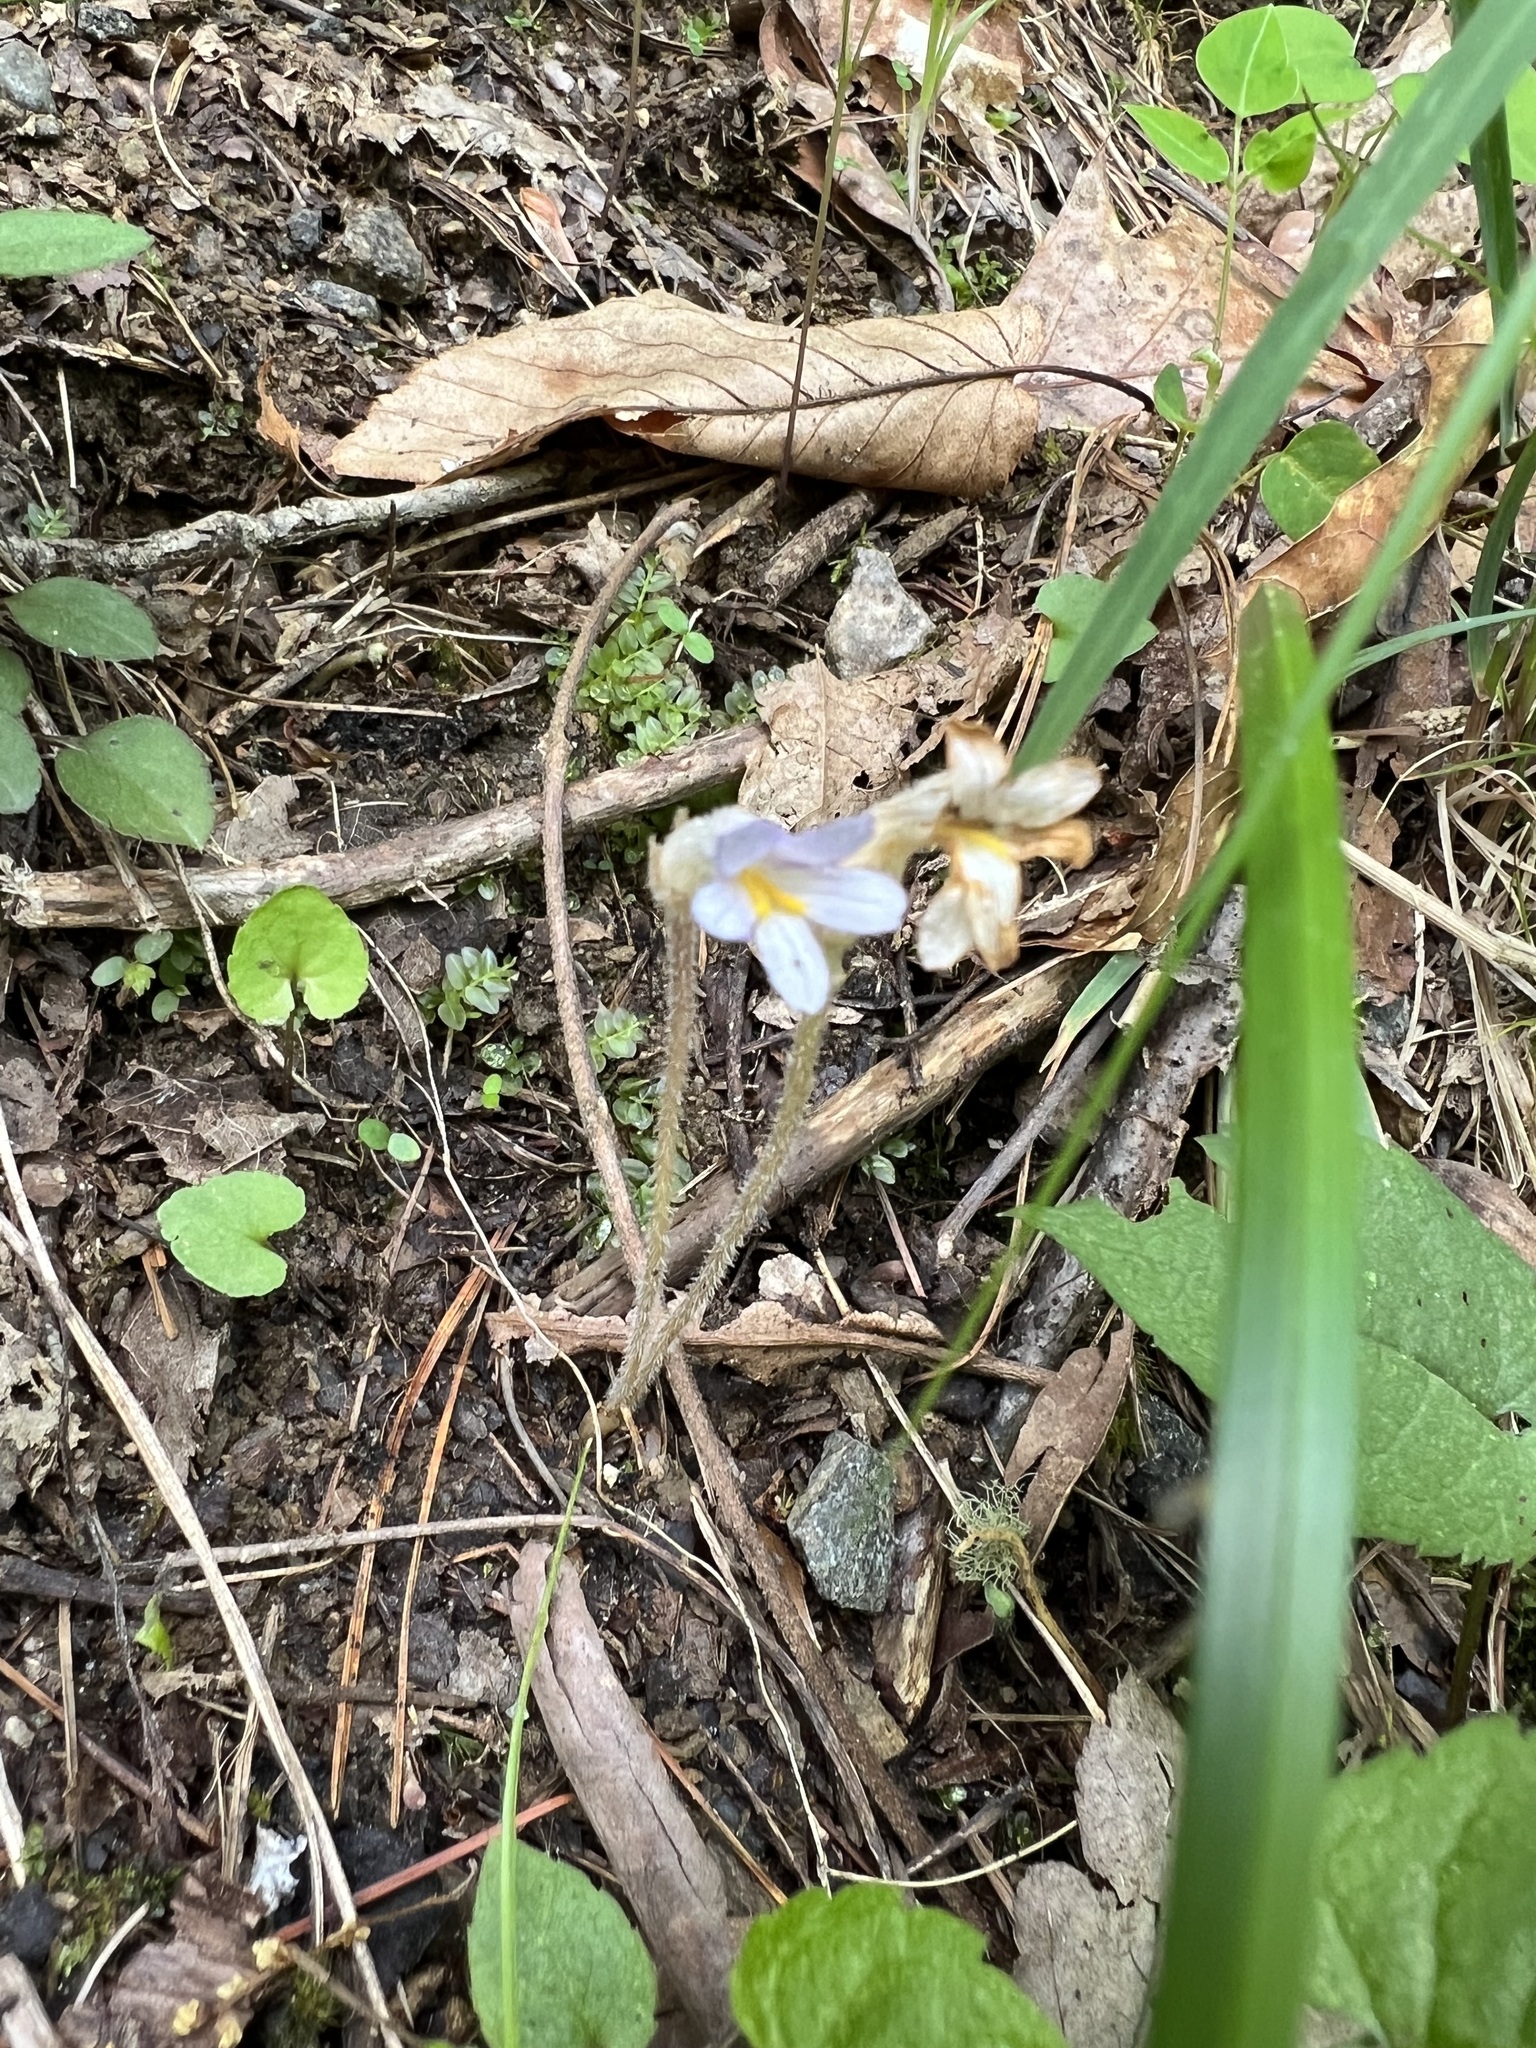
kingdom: Plantae
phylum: Tracheophyta
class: Magnoliopsida
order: Lamiales
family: Orobanchaceae
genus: Aphyllon
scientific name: Aphyllon uniflorum
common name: One-flowered broomrape
